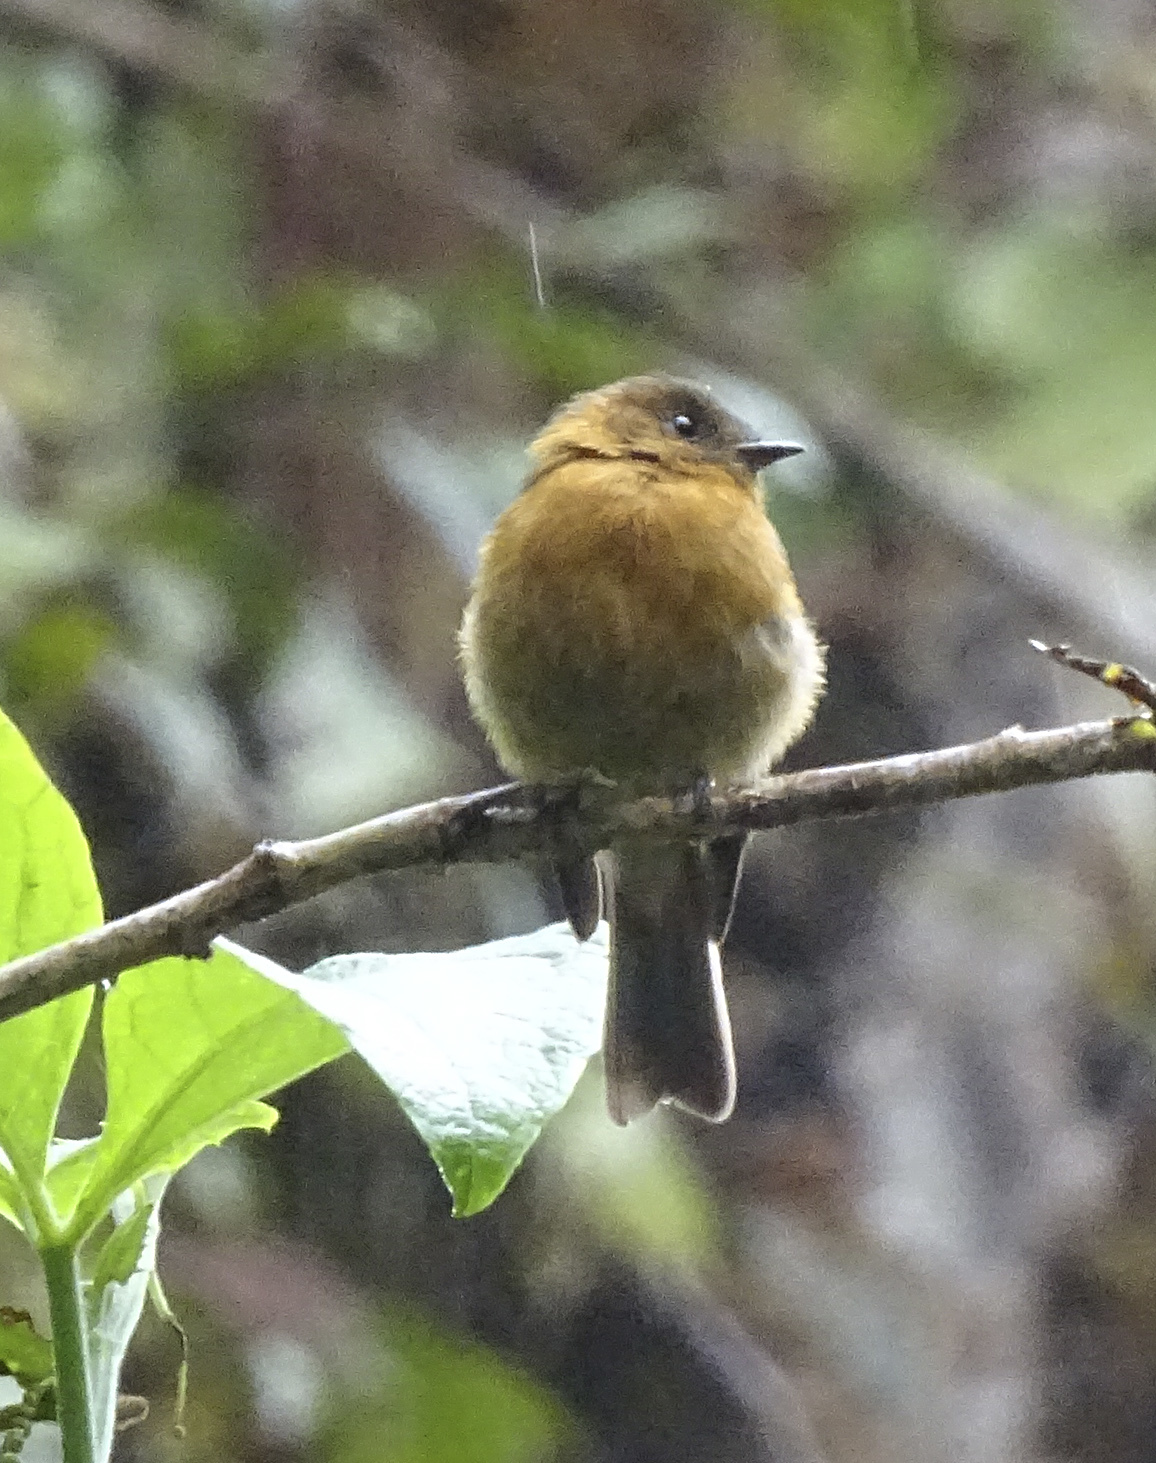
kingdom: Animalia
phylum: Chordata
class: Aves
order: Passeriformes
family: Tyrannidae
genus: Pyrrhomyias
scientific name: Pyrrhomyias cinnamomeus
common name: Cinnamon flycatcher
